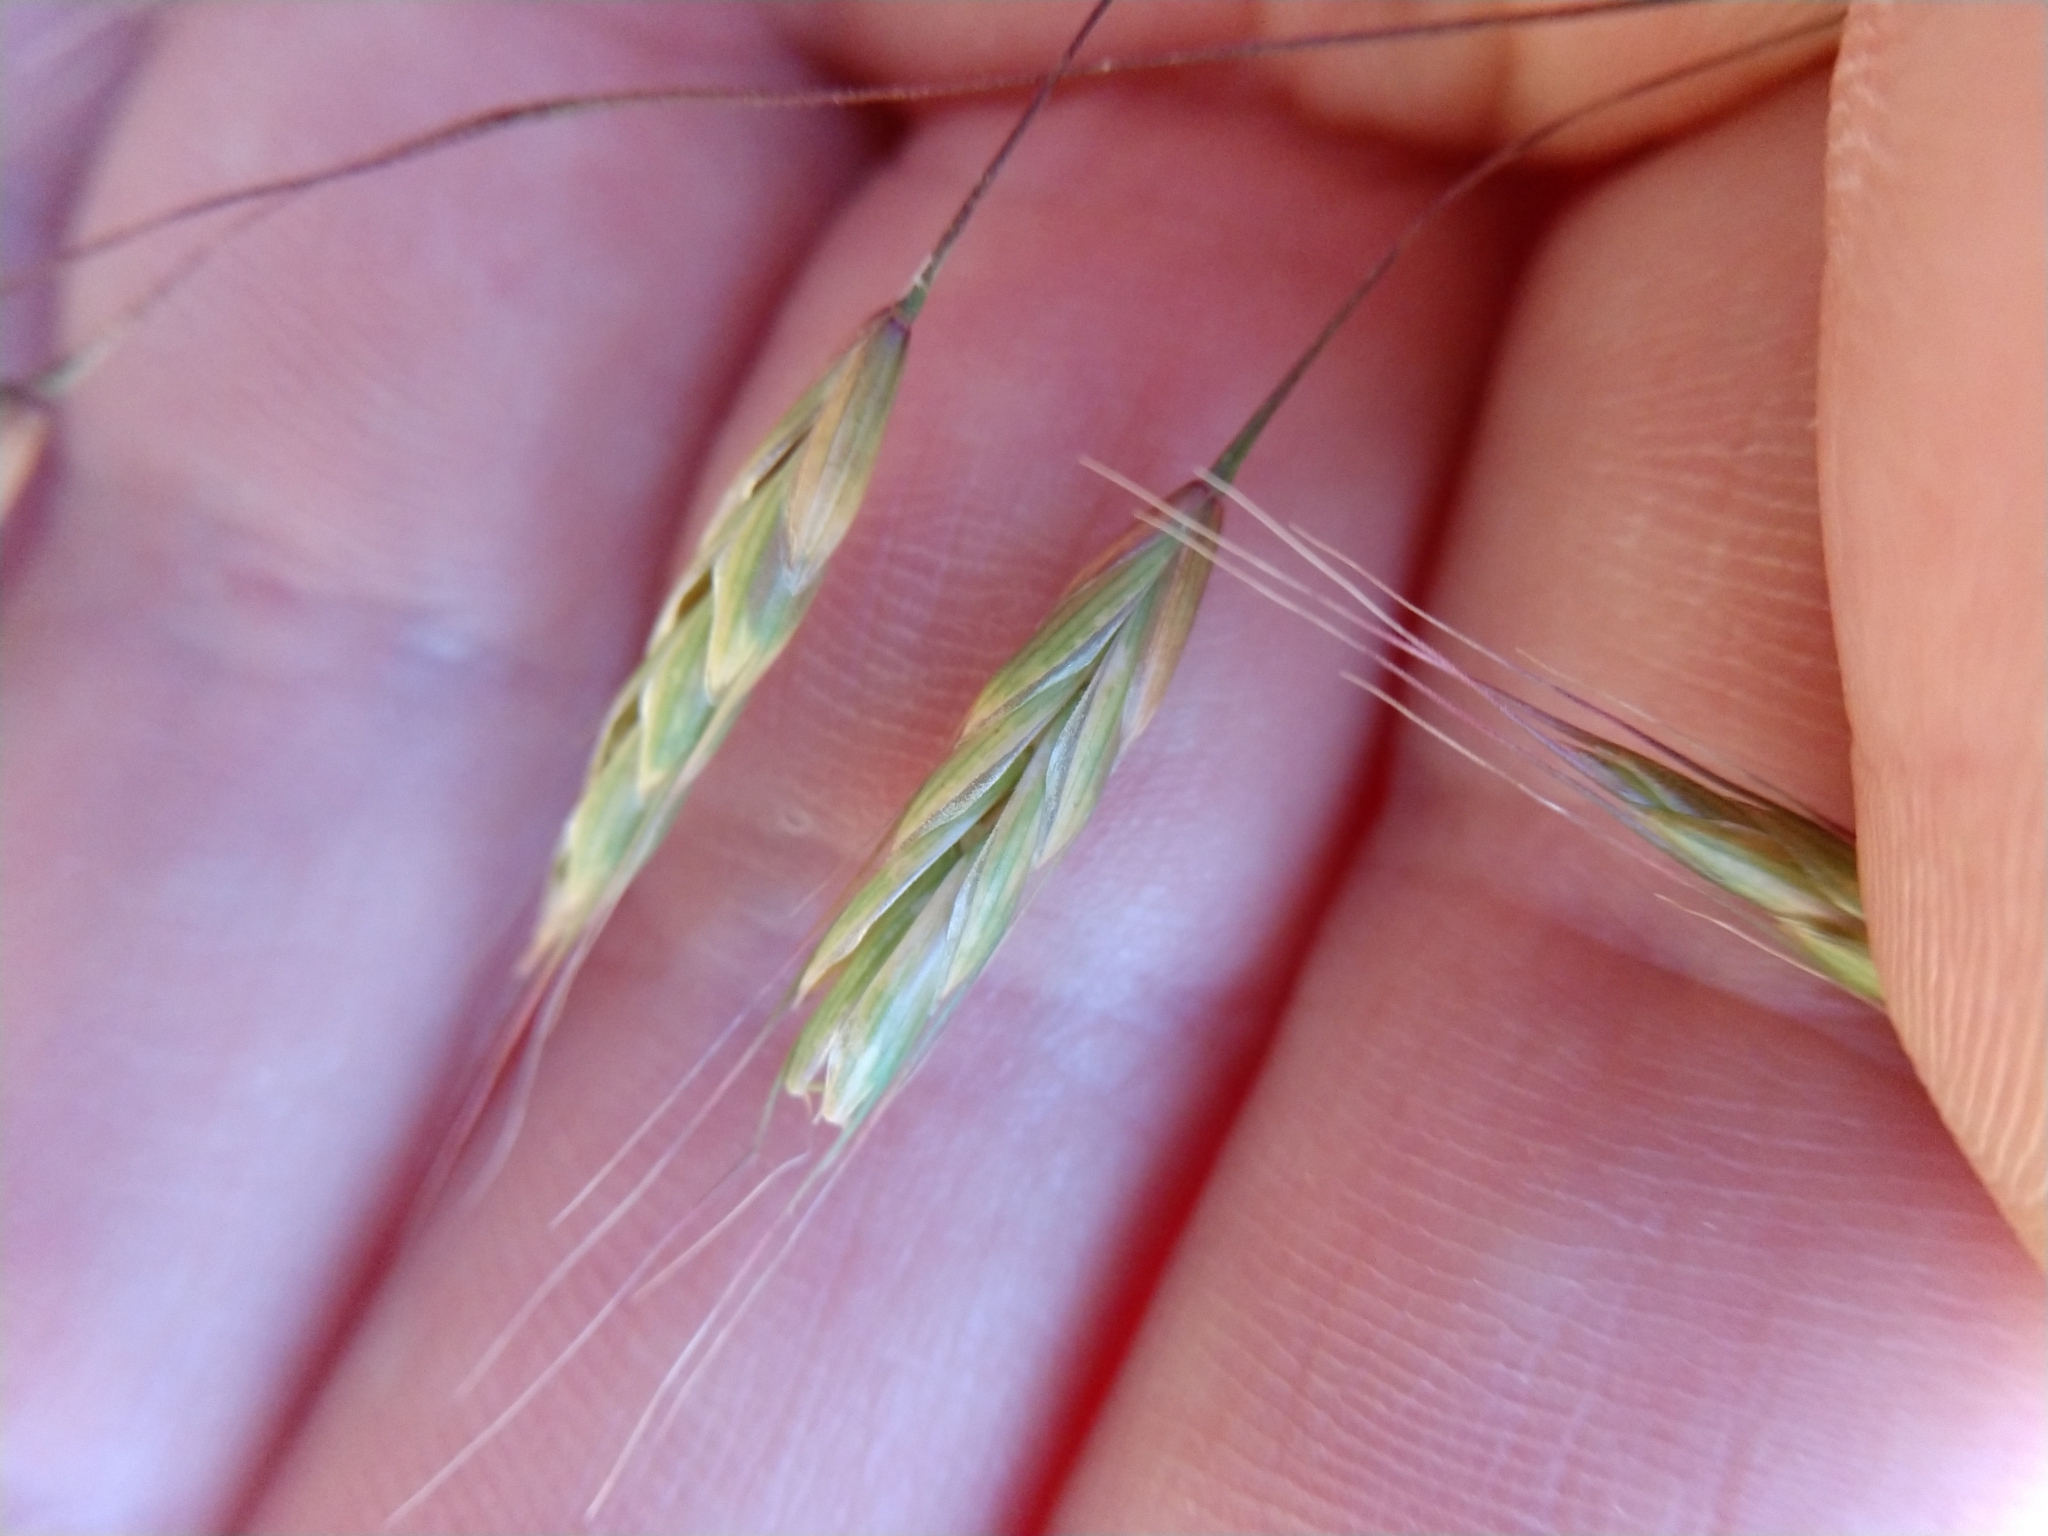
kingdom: Plantae
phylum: Tracheophyta
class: Liliopsida
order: Poales
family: Poaceae
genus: Bromus
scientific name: Bromus arvensis
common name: Field brome
